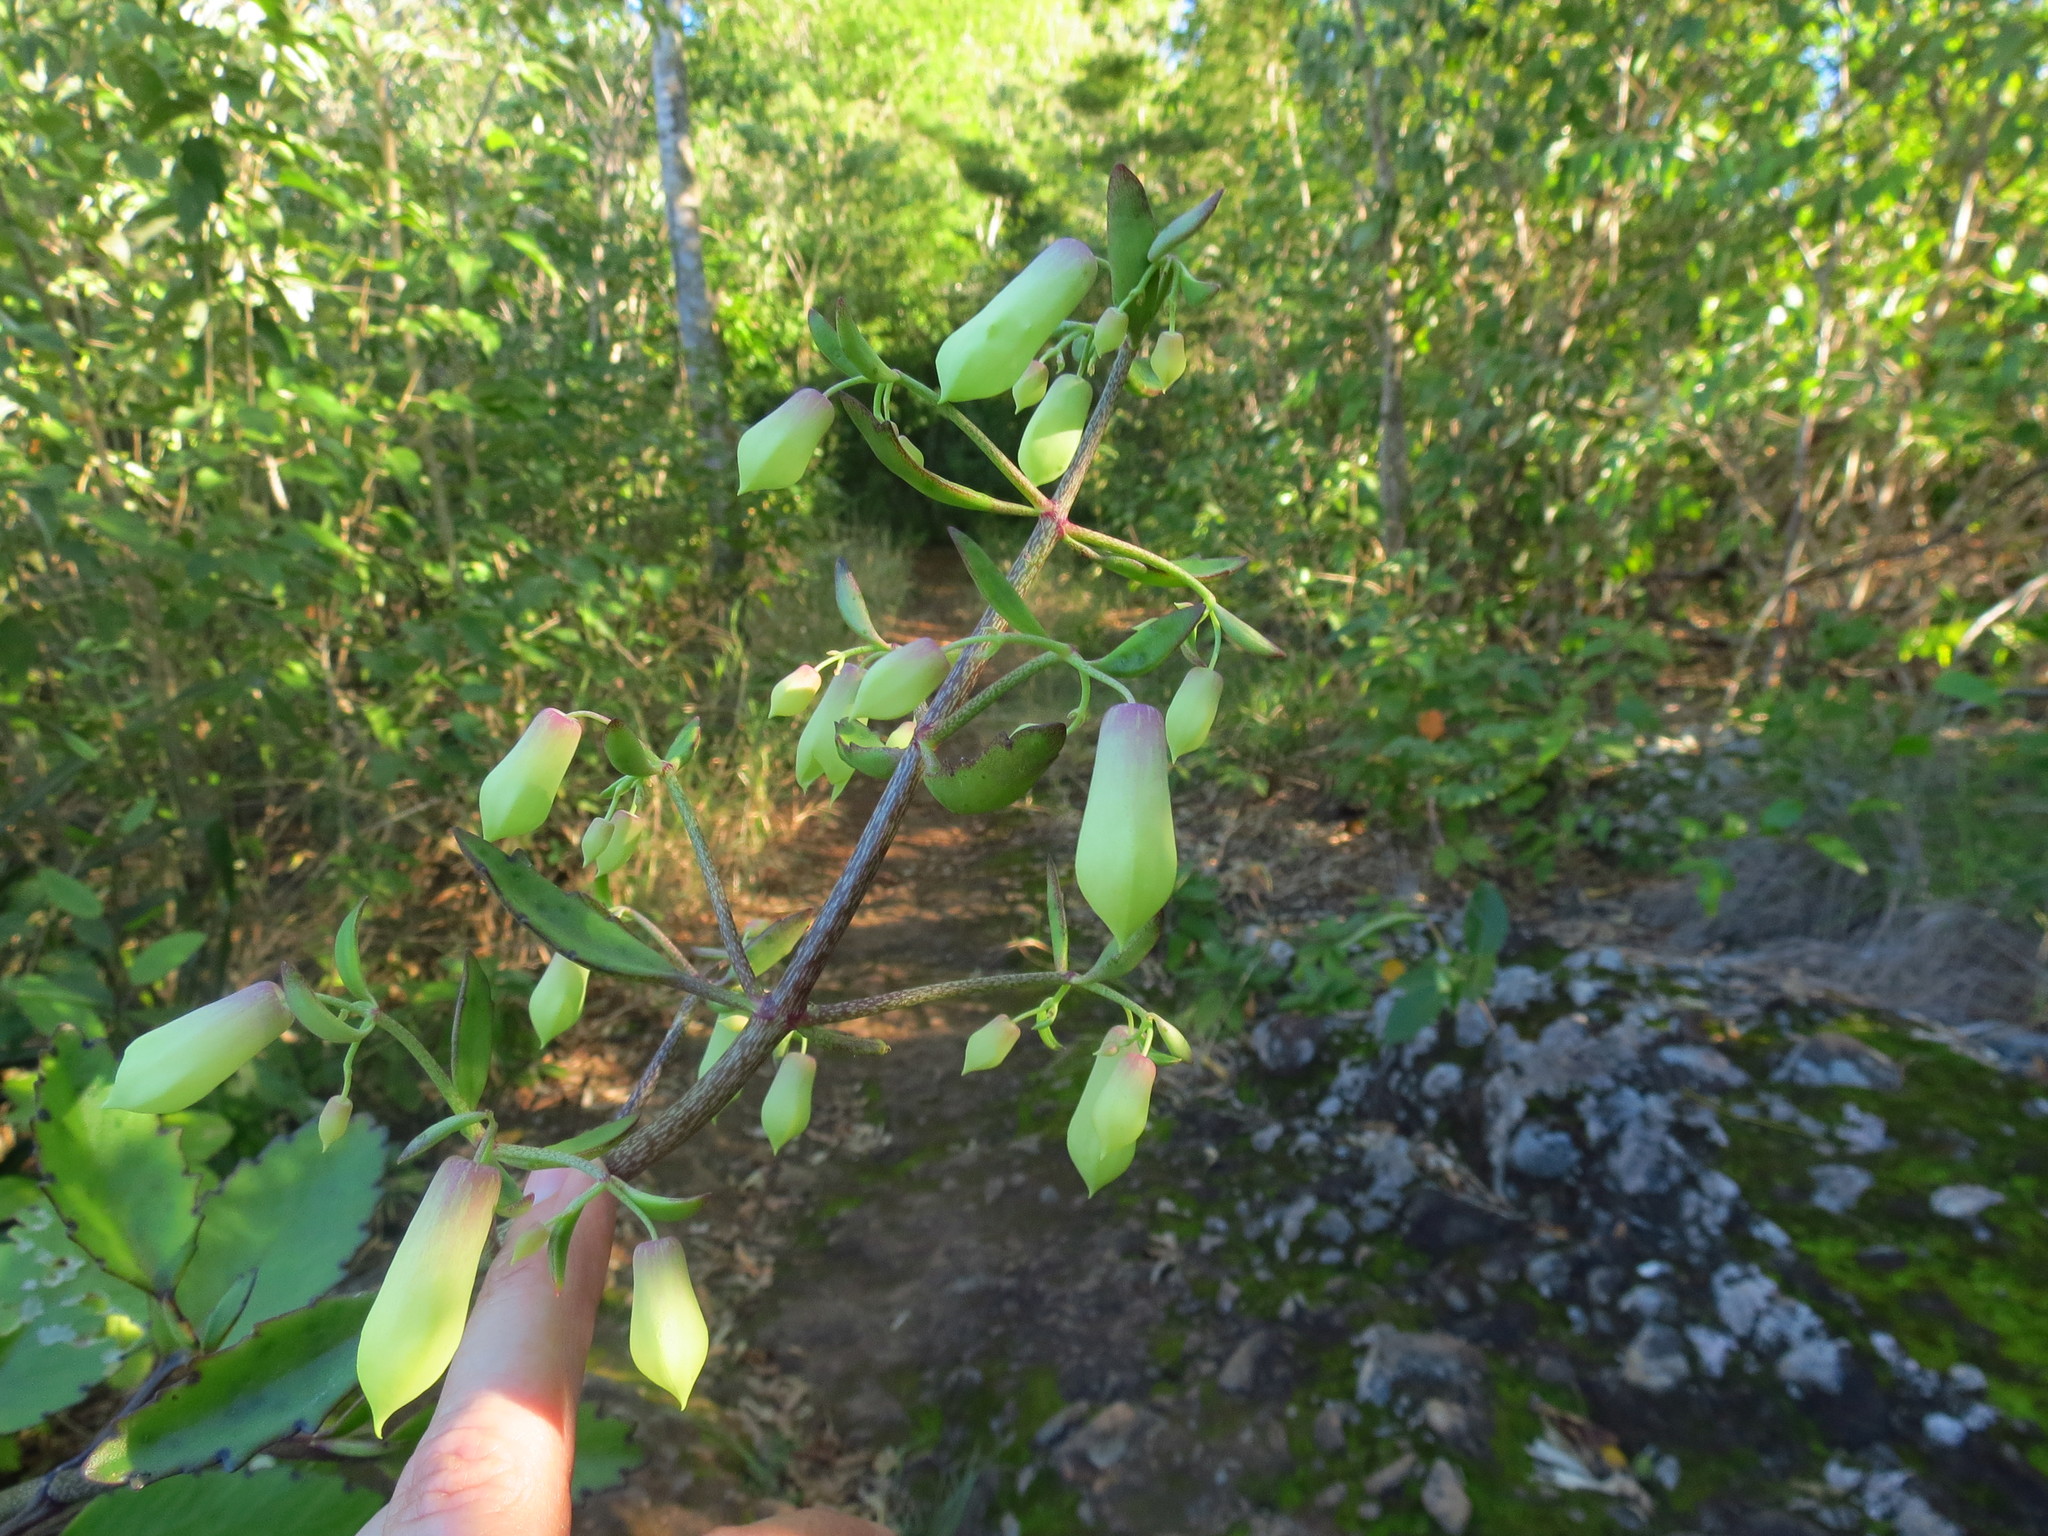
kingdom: Plantae
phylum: Tracheophyta
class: Magnoliopsida
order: Saxifragales
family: Crassulaceae
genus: Kalanchoe
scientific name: Kalanchoe pinnata
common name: Cathedral bells
